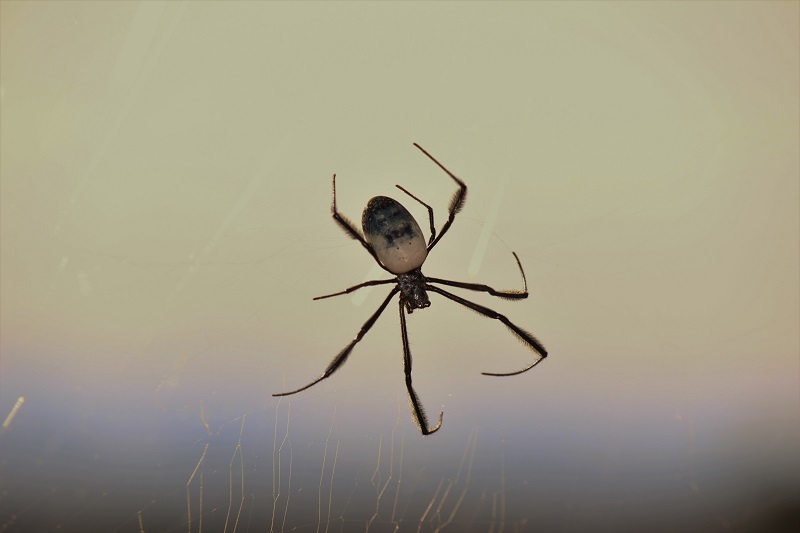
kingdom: Animalia
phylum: Arthropoda
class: Arachnida
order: Araneae
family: Araneidae
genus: Trichonephila
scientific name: Trichonephila fenestrata
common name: Hairy golden orb weaver
